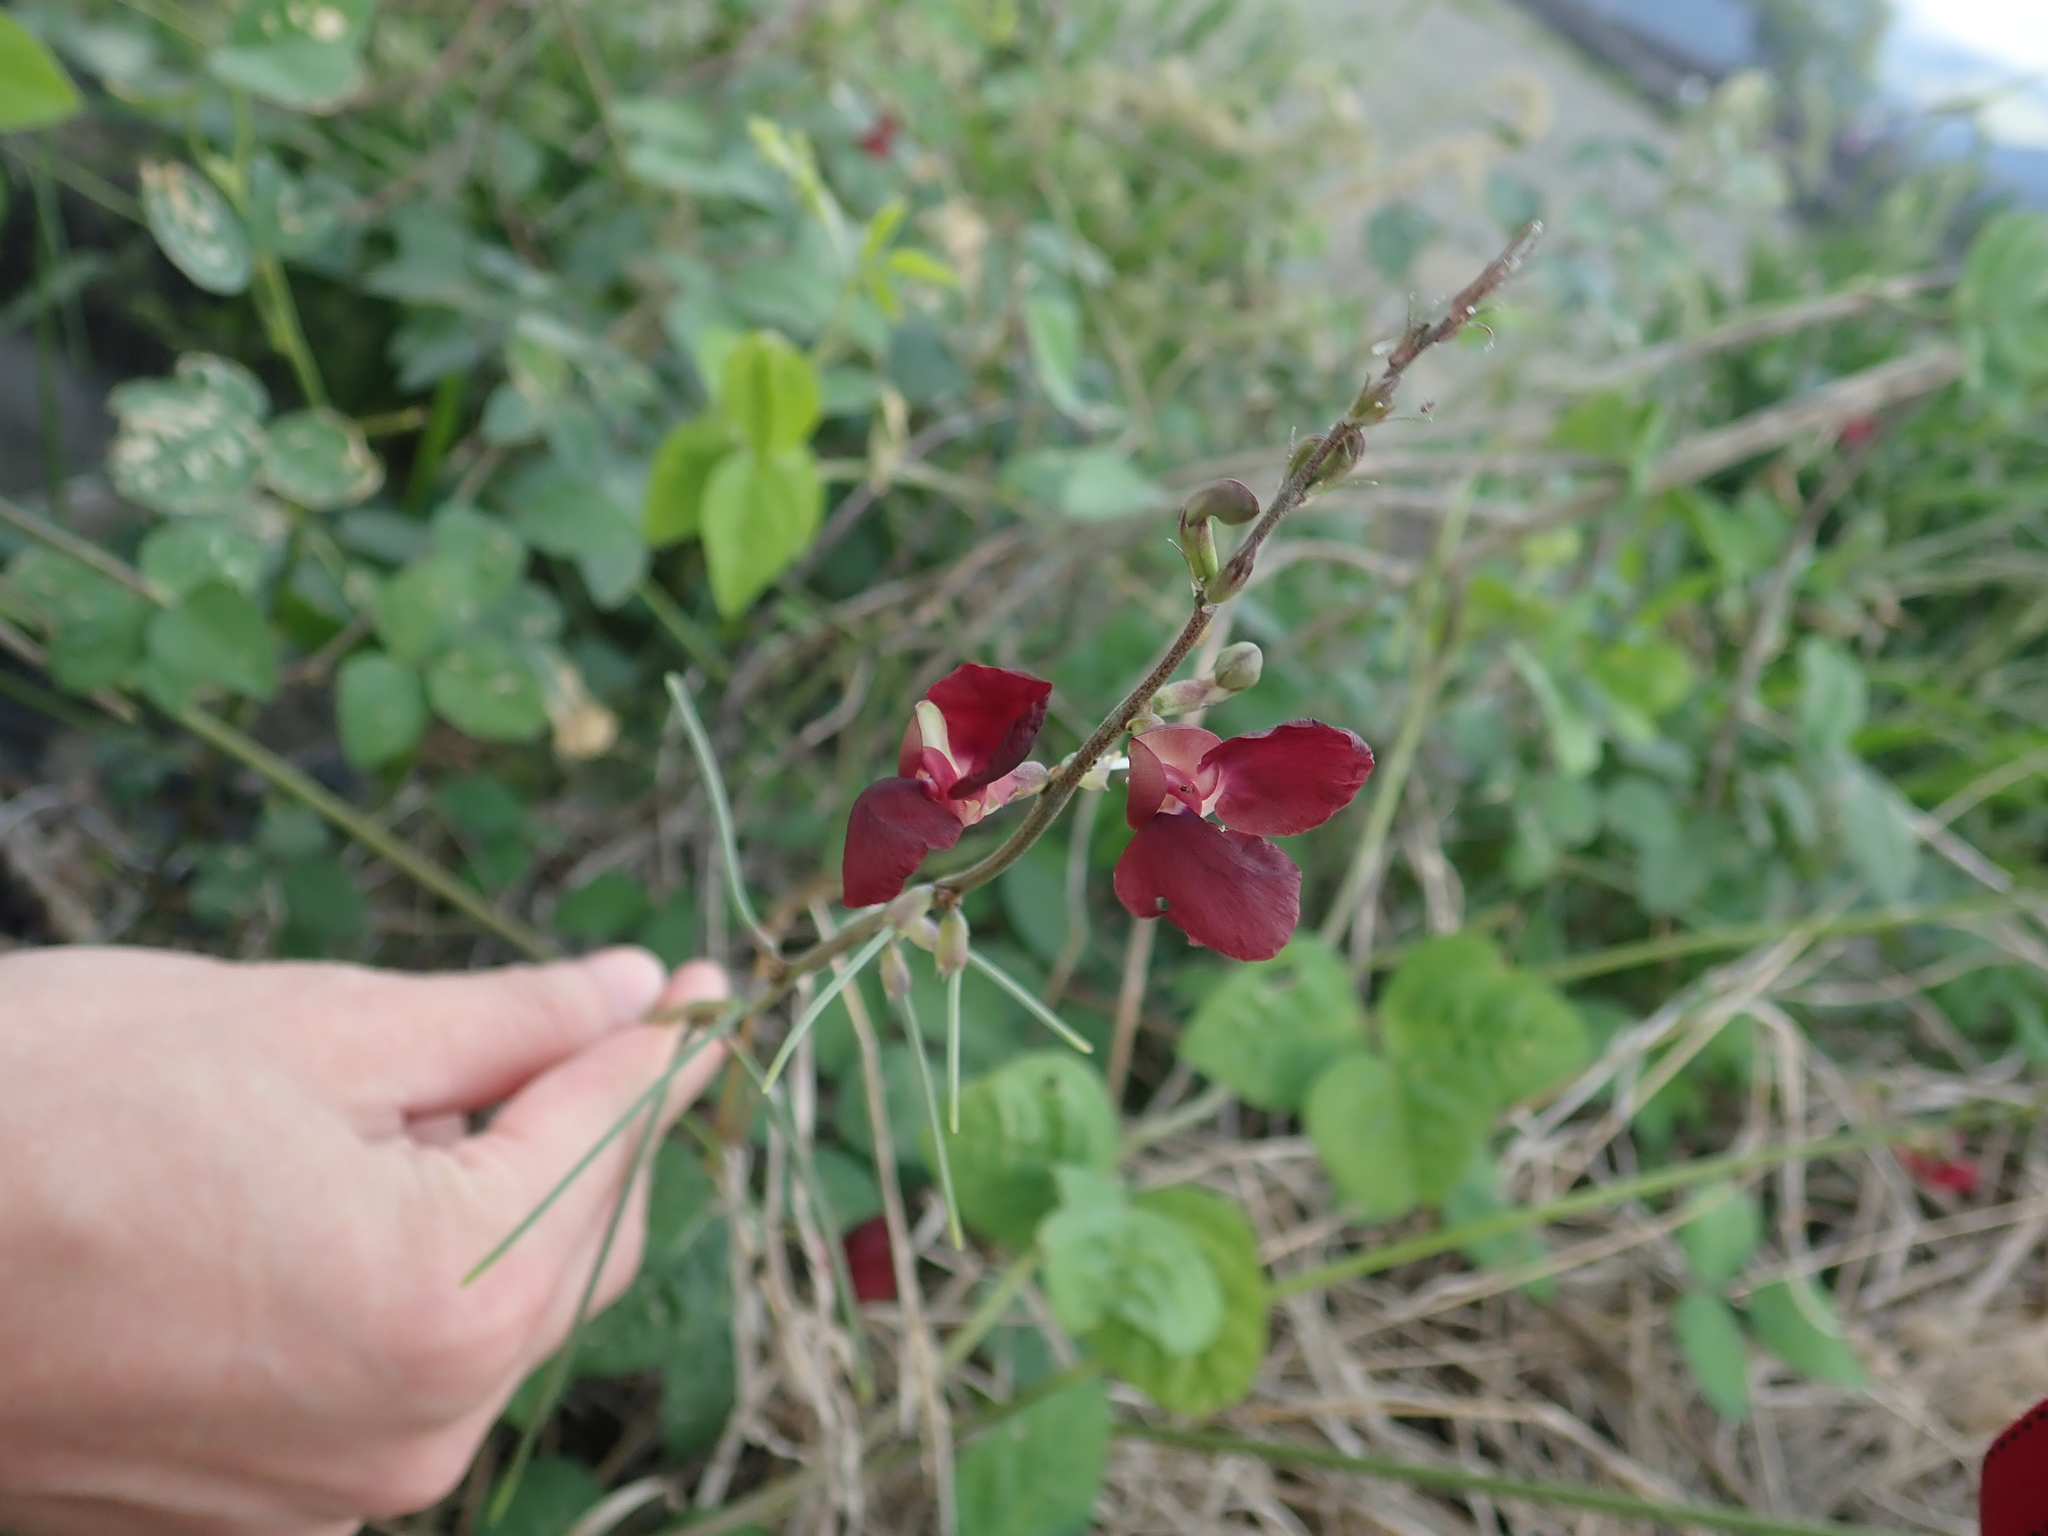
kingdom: Plantae
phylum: Tracheophyta
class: Magnoliopsida
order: Fabales
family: Fabaceae
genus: Macroptilium
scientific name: Macroptilium lathyroides
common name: Wild bushbean
